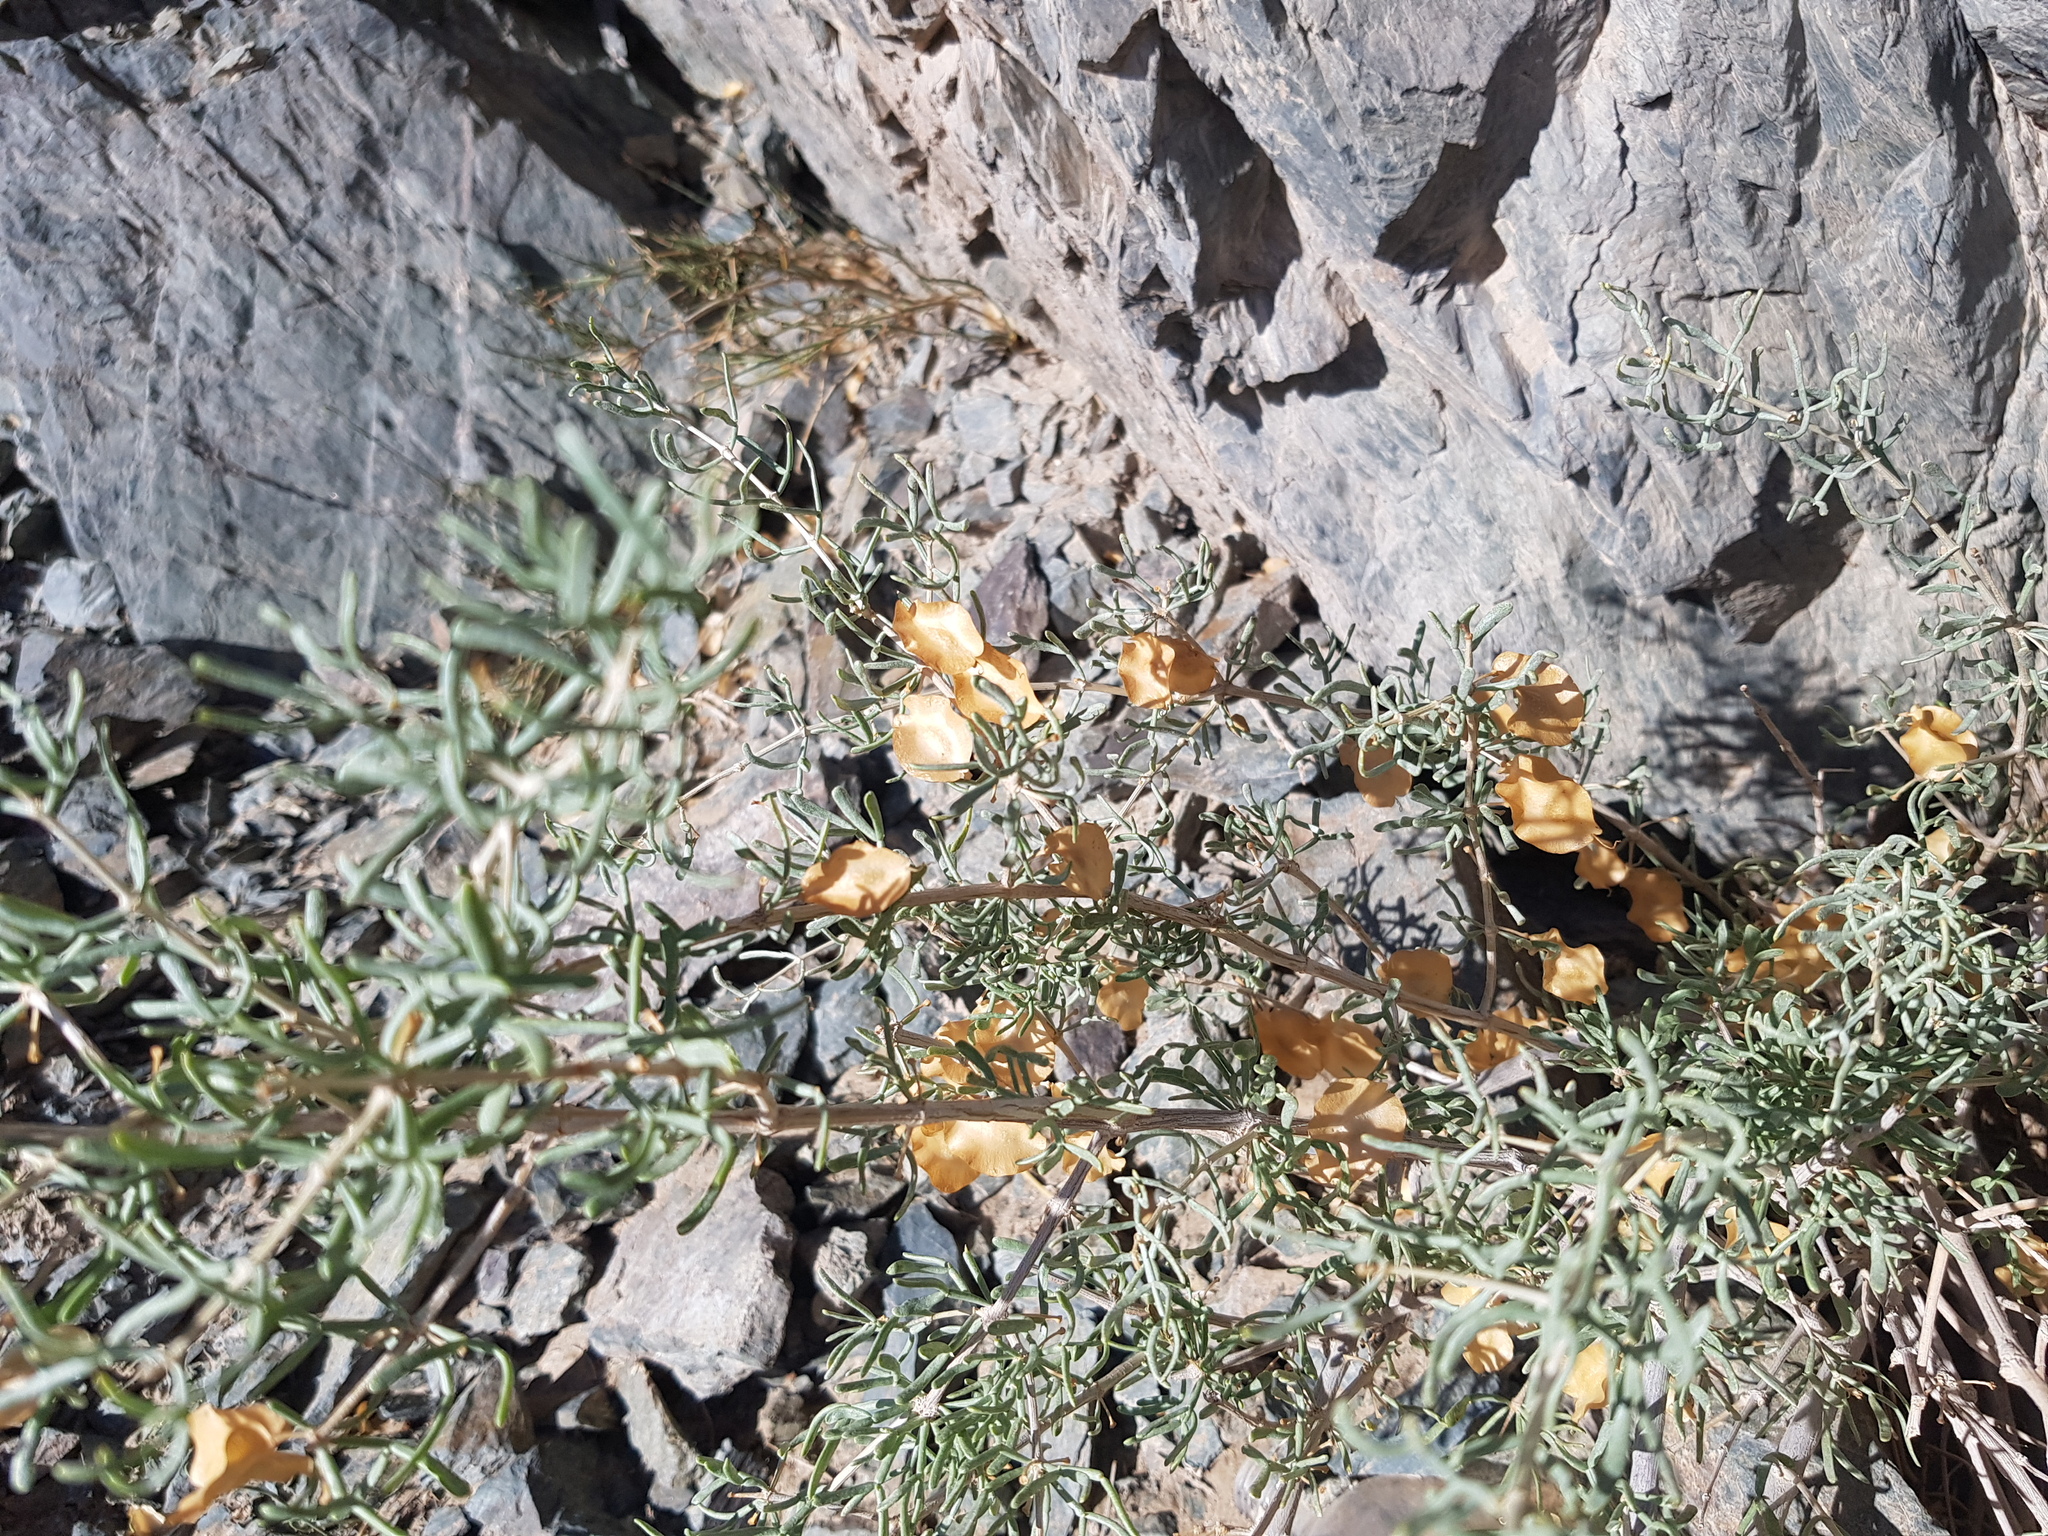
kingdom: Plantae
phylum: Tracheophyta
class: Magnoliopsida
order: Zygophyllales
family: Zygophyllaceae
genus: Zygophyllum
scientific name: Zygophyllum xanthoxylum
